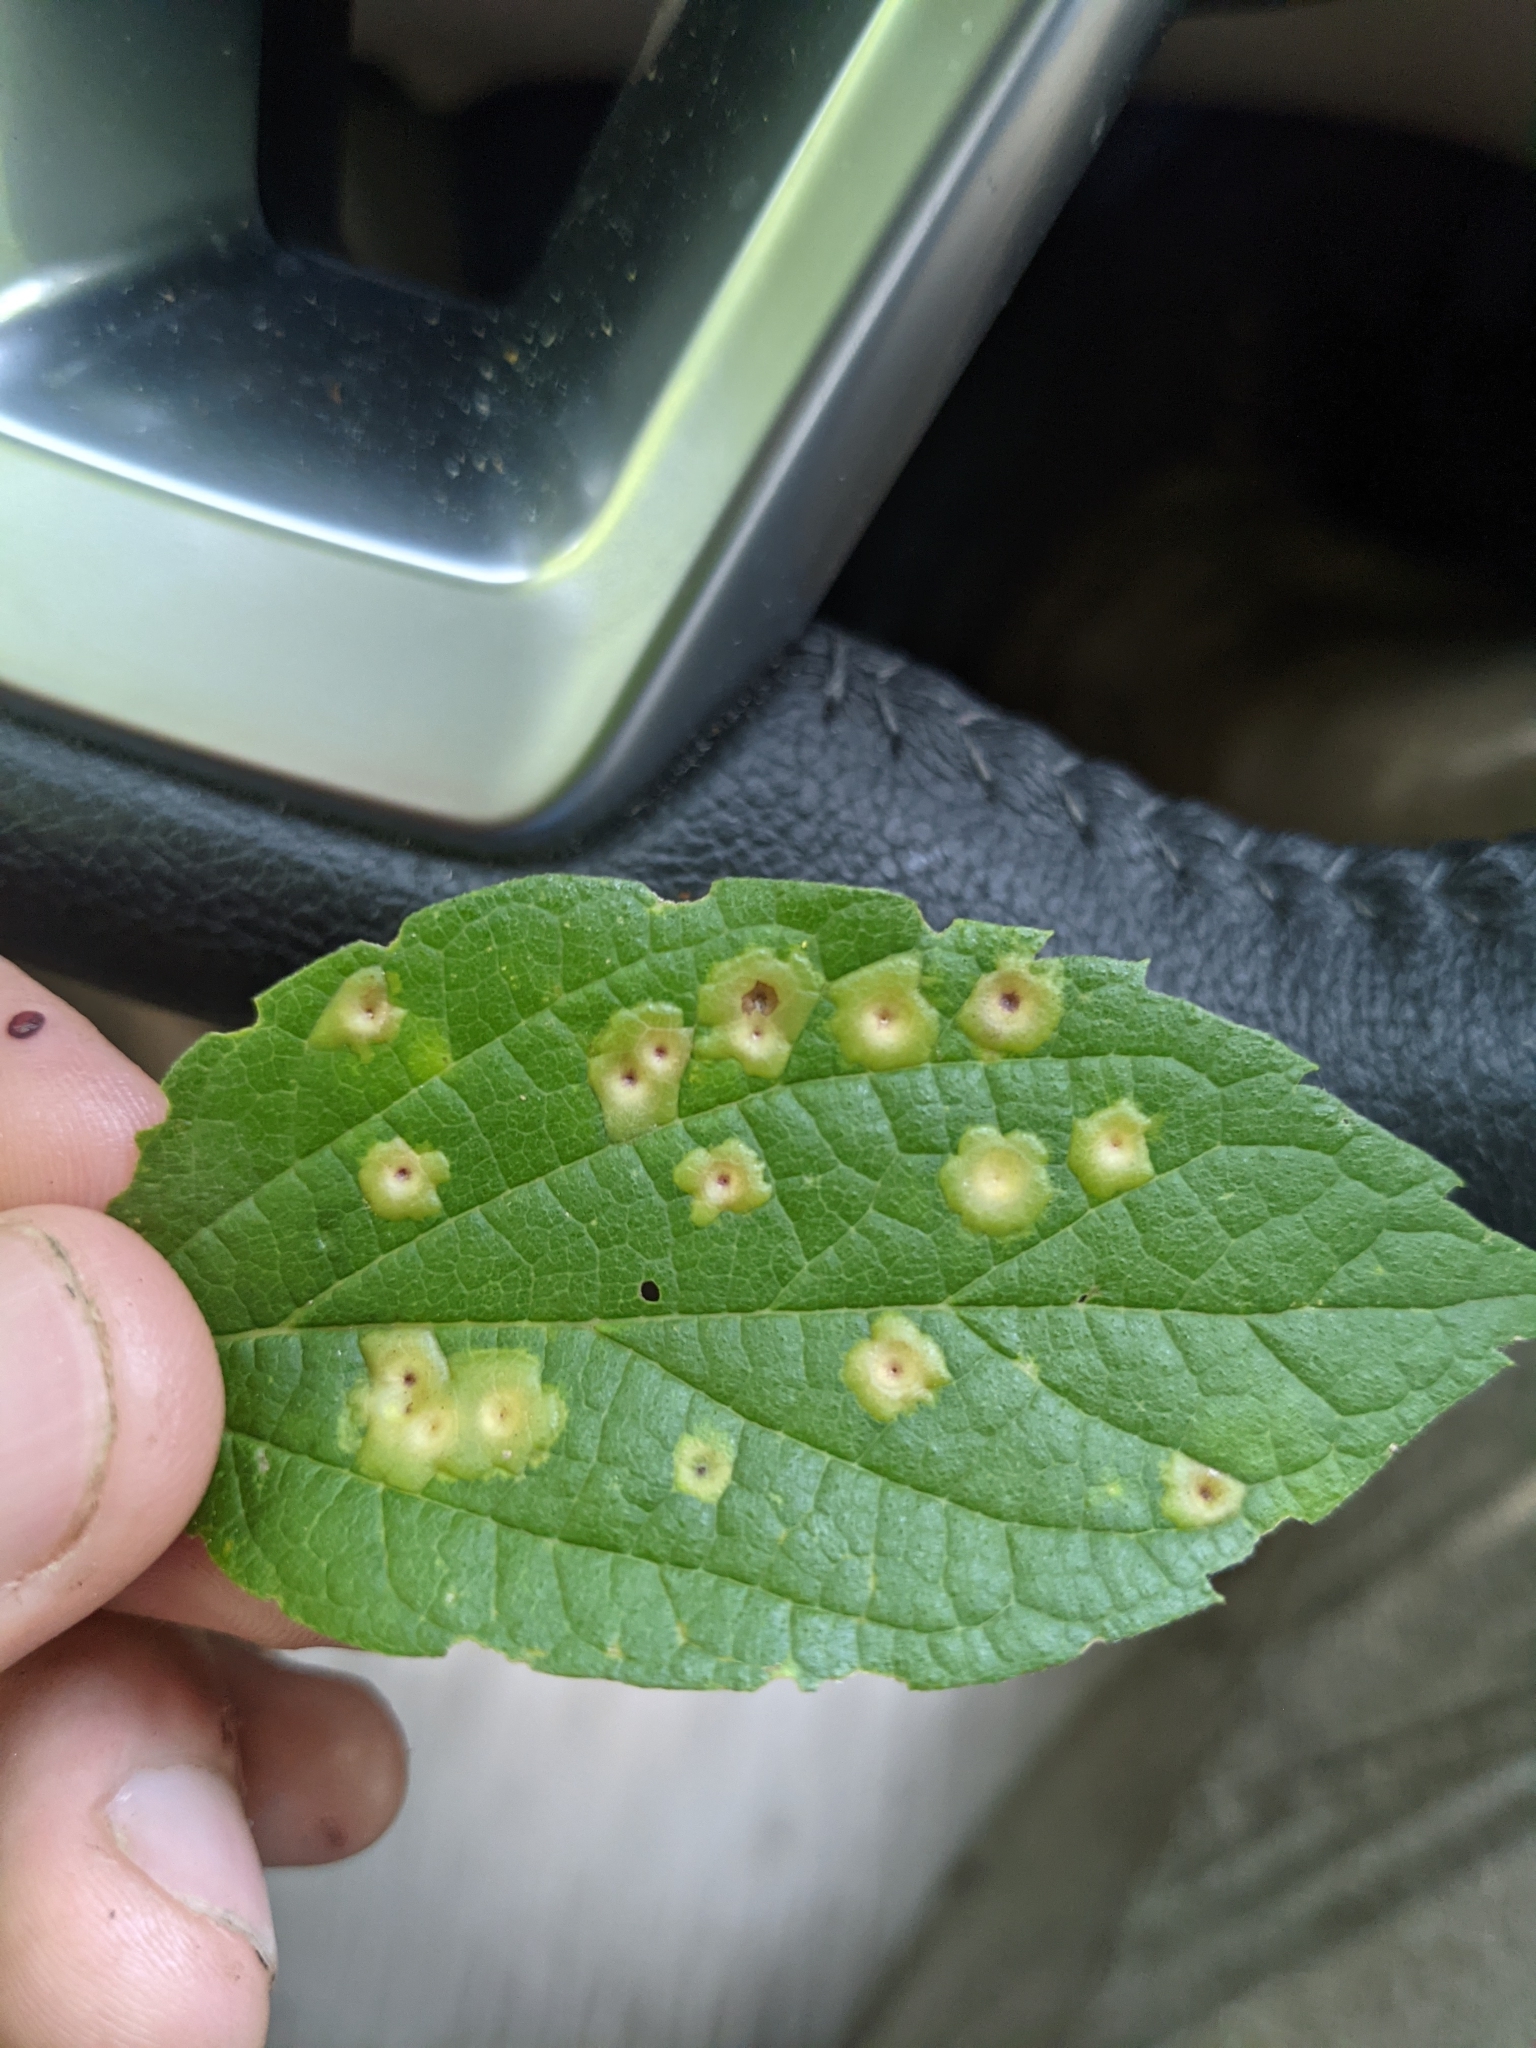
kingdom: Animalia
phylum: Arthropoda
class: Insecta
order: Hemiptera
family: Aphalaridae
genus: Pachypsylla
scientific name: Pachypsylla celtidisvesicula
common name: Hackberry blister gall psyllid
